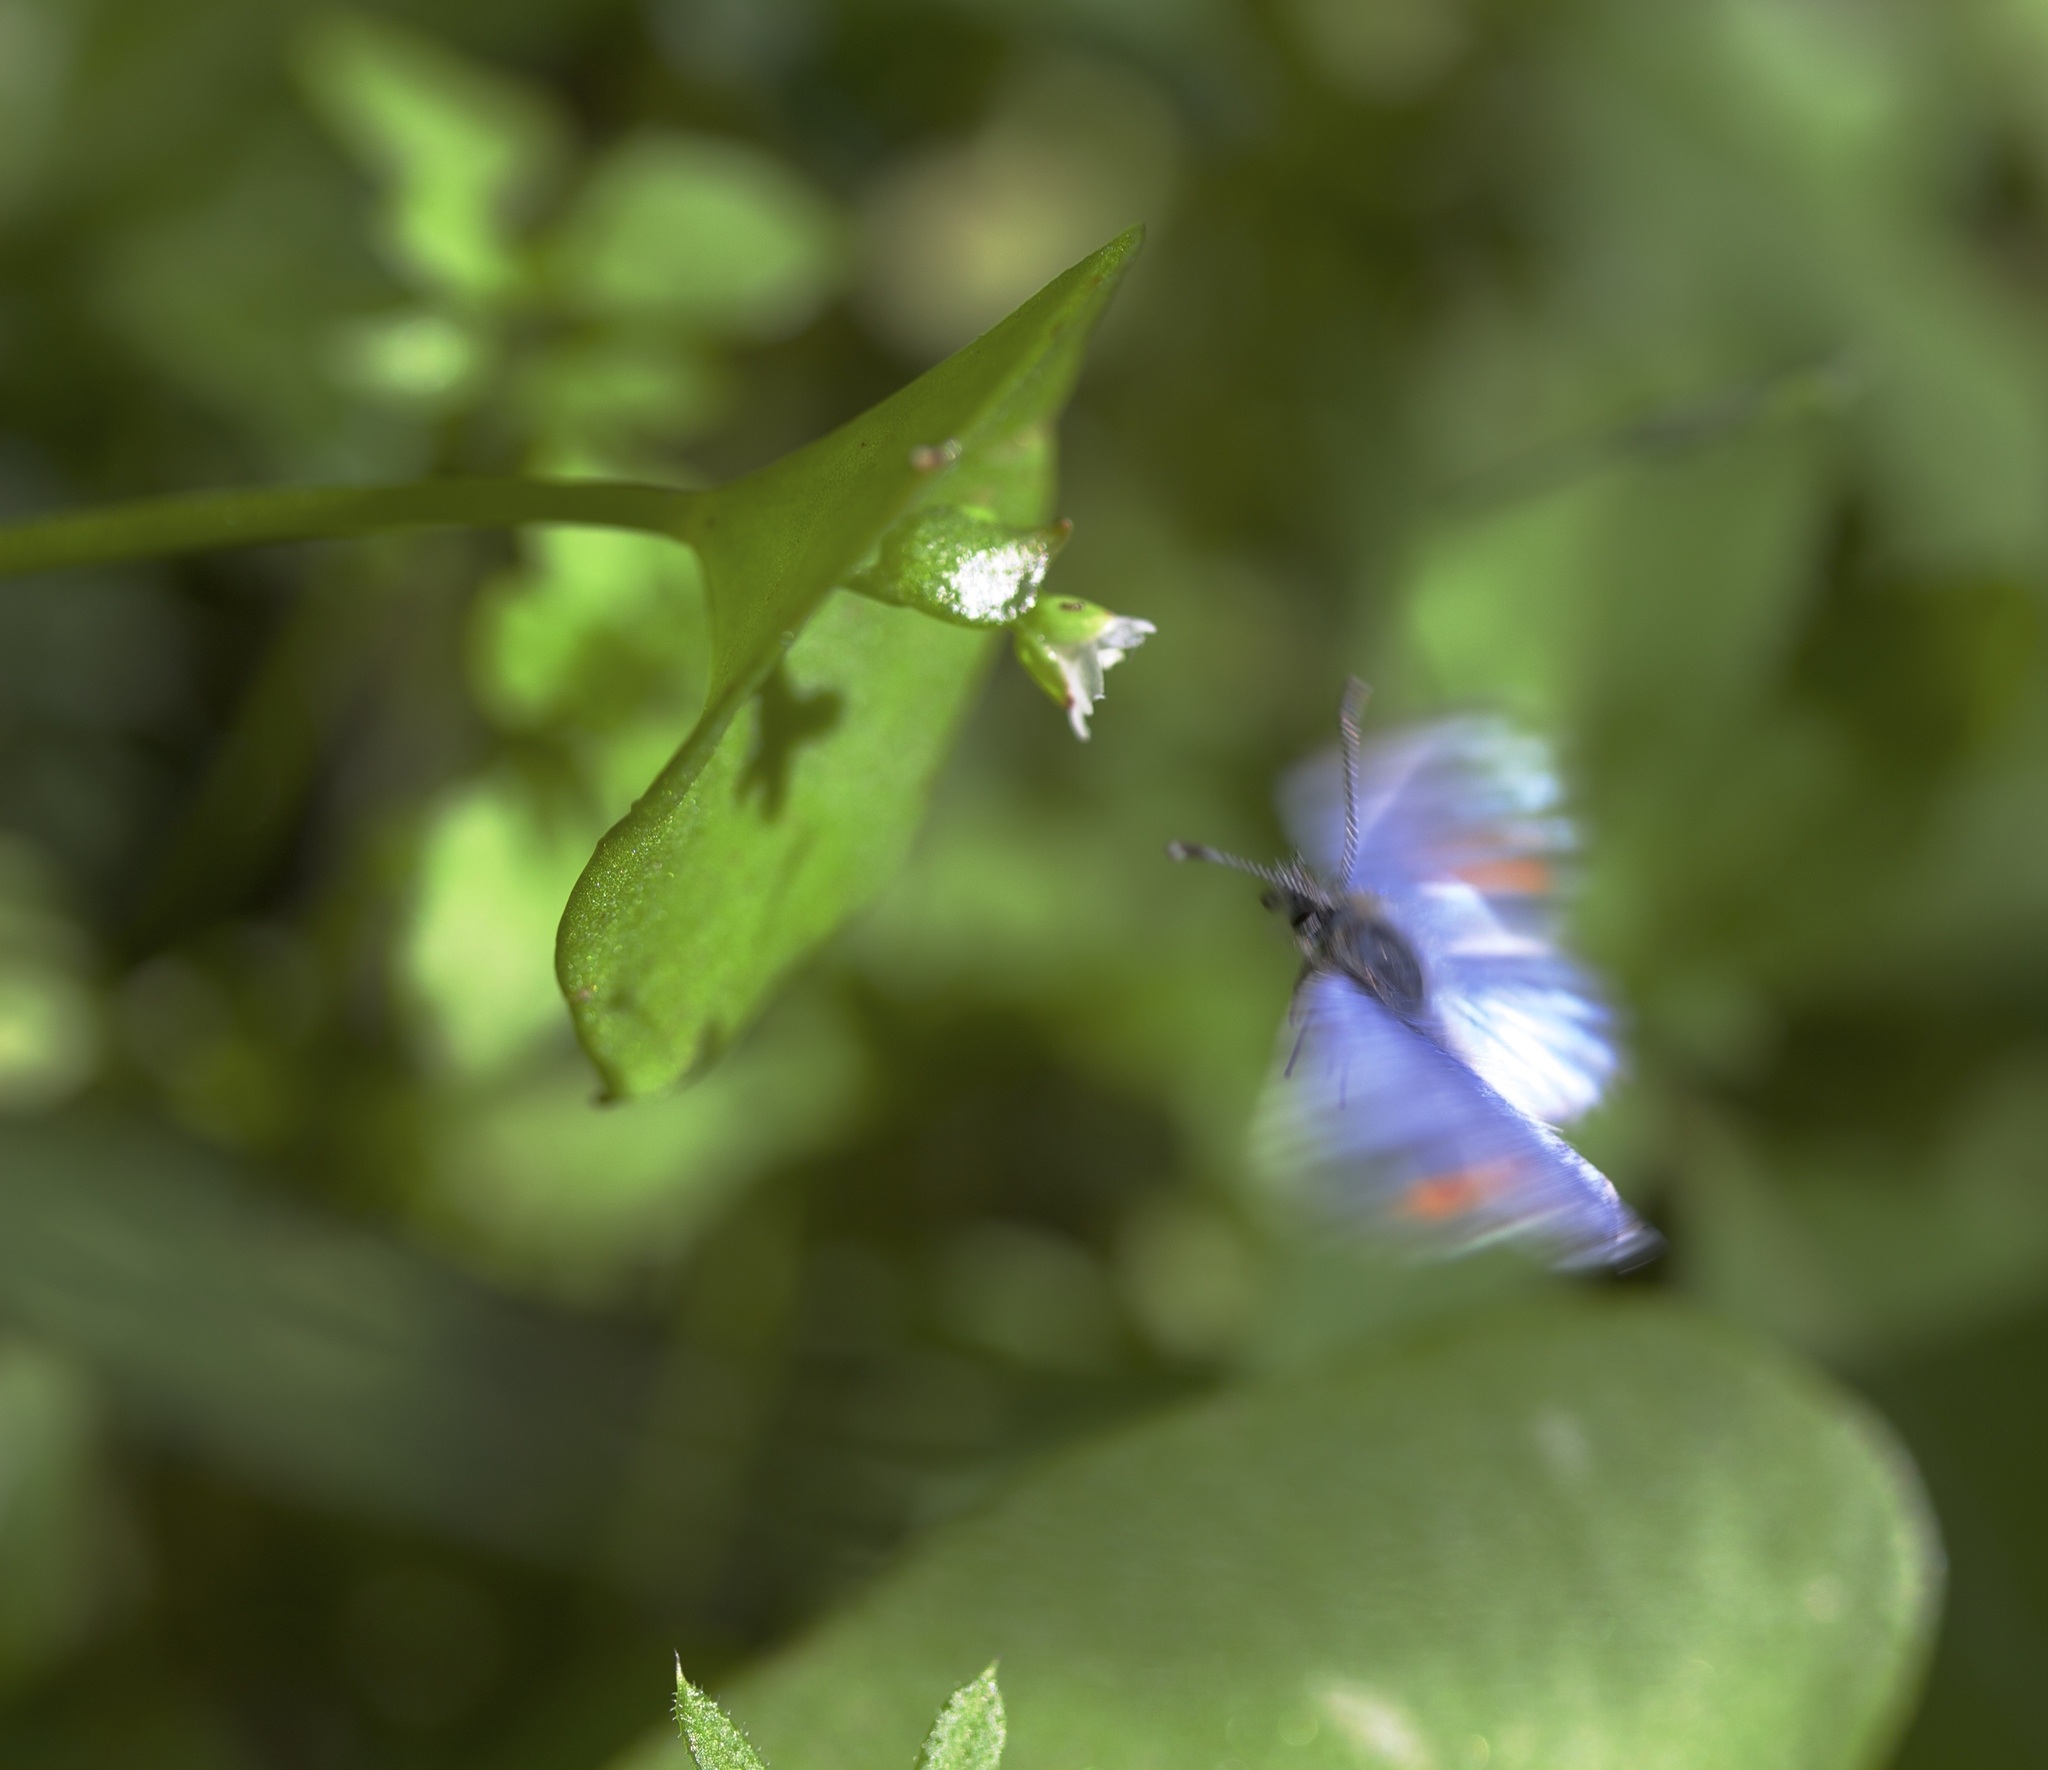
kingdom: Animalia
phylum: Arthropoda
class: Insecta
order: Lepidoptera
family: Lycaenidae
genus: Philotes
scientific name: Philotes sonorensis
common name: Sonoran blue
